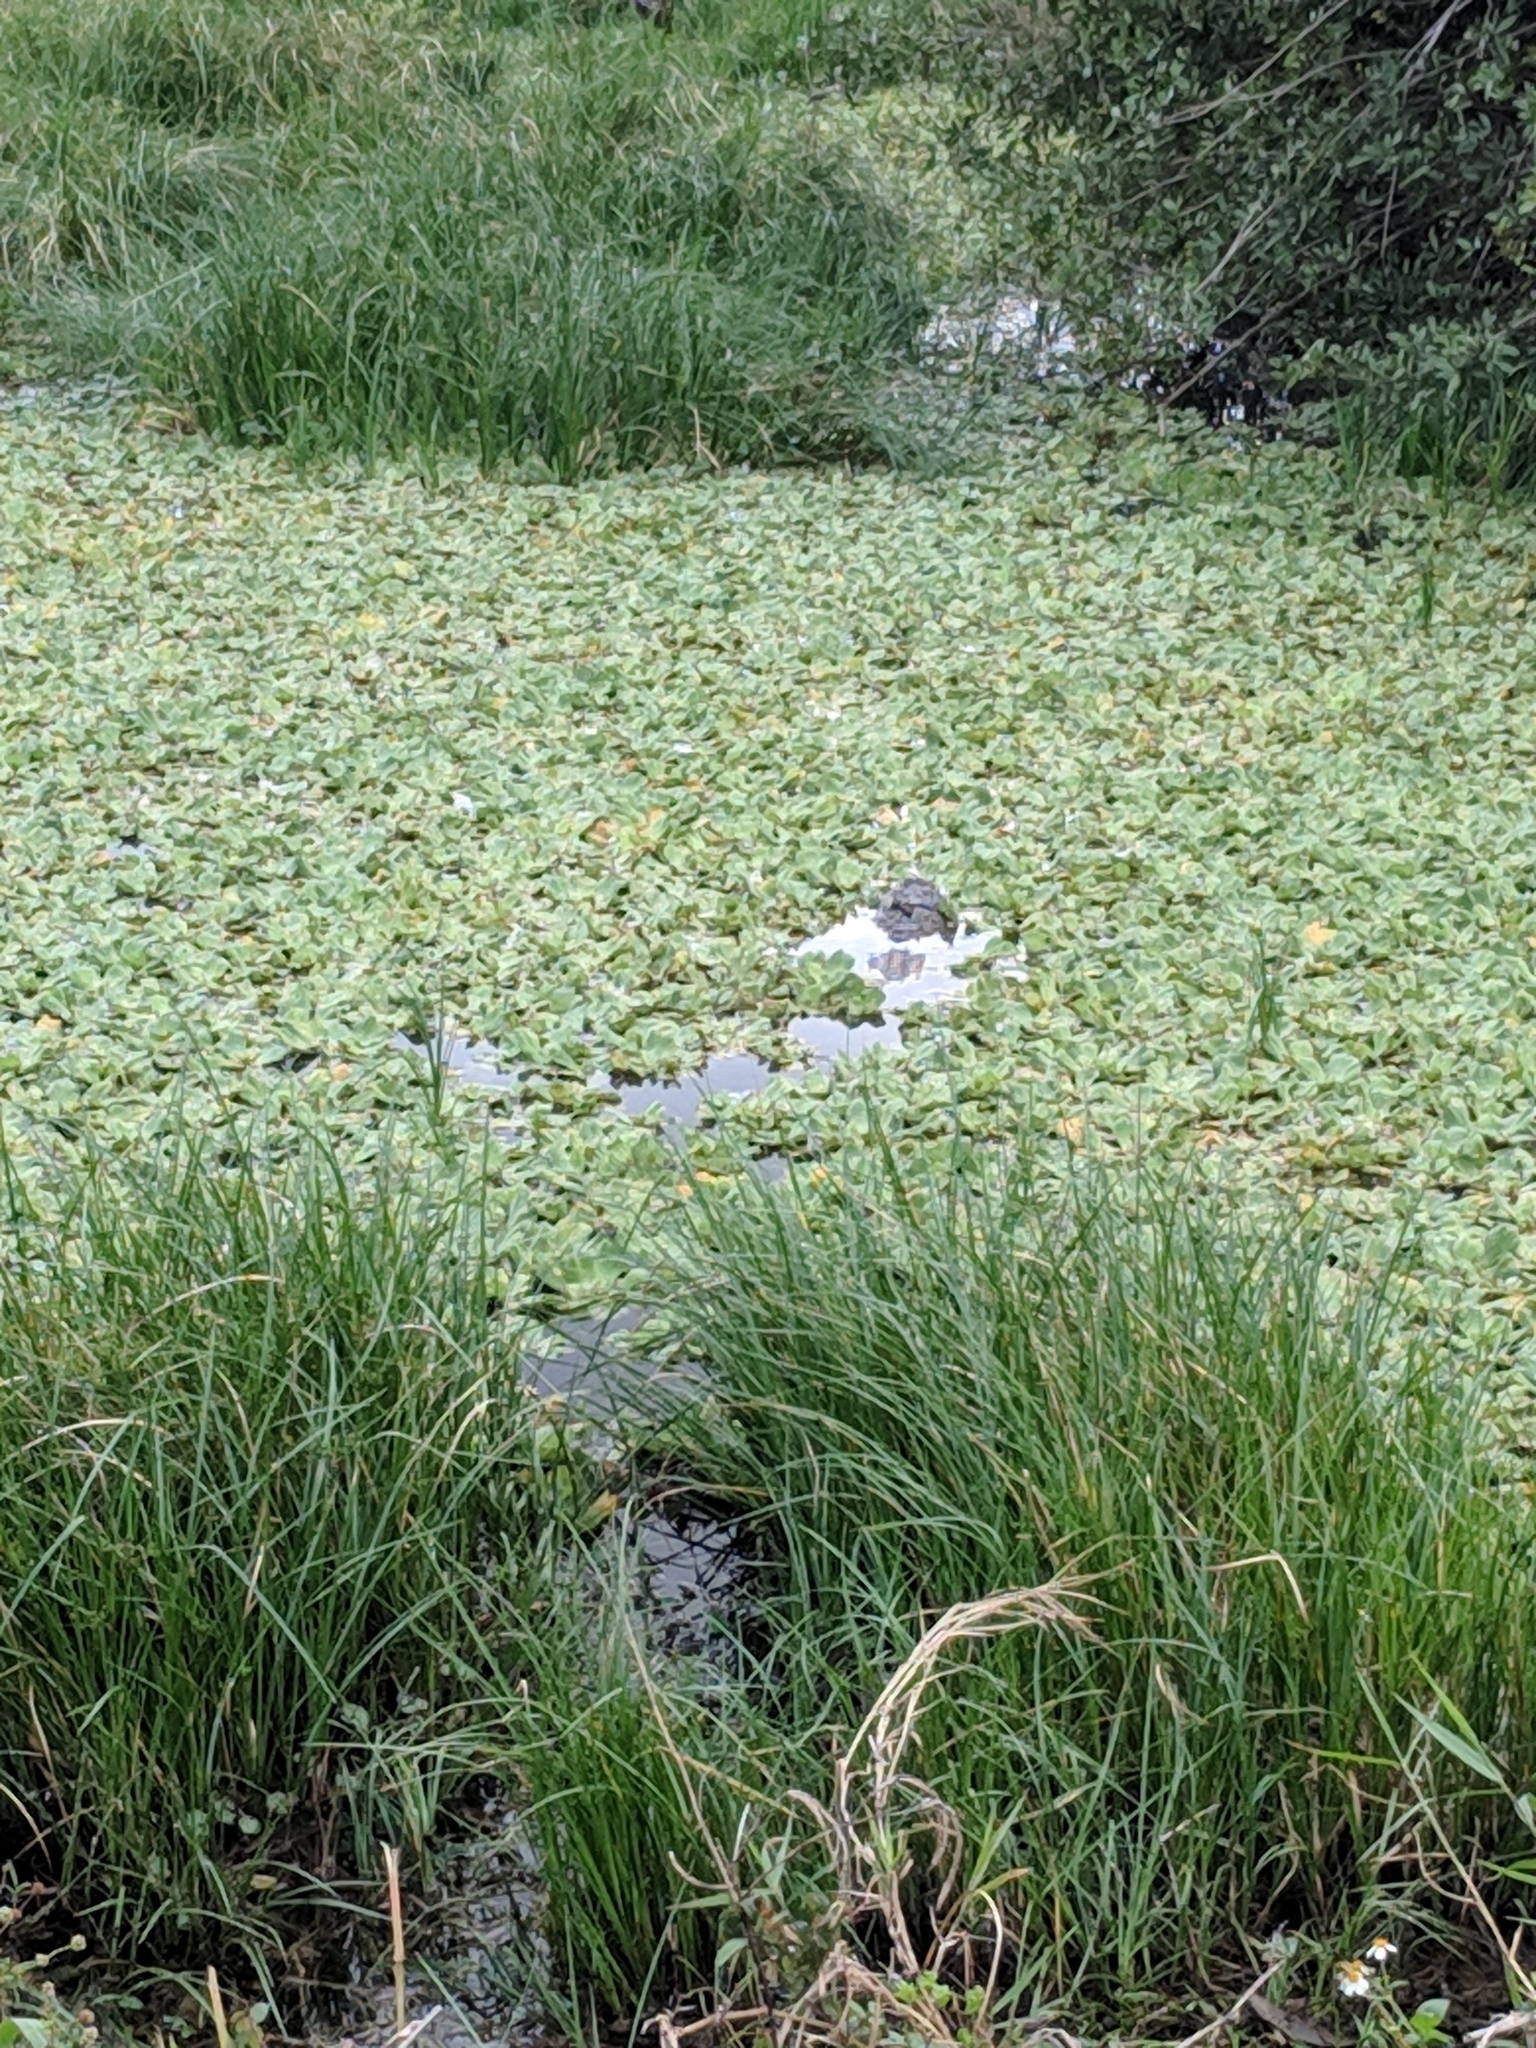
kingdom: Animalia
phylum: Chordata
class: Crocodylia
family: Alligatoridae
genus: Alligator
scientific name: Alligator mississippiensis
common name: American alligator
